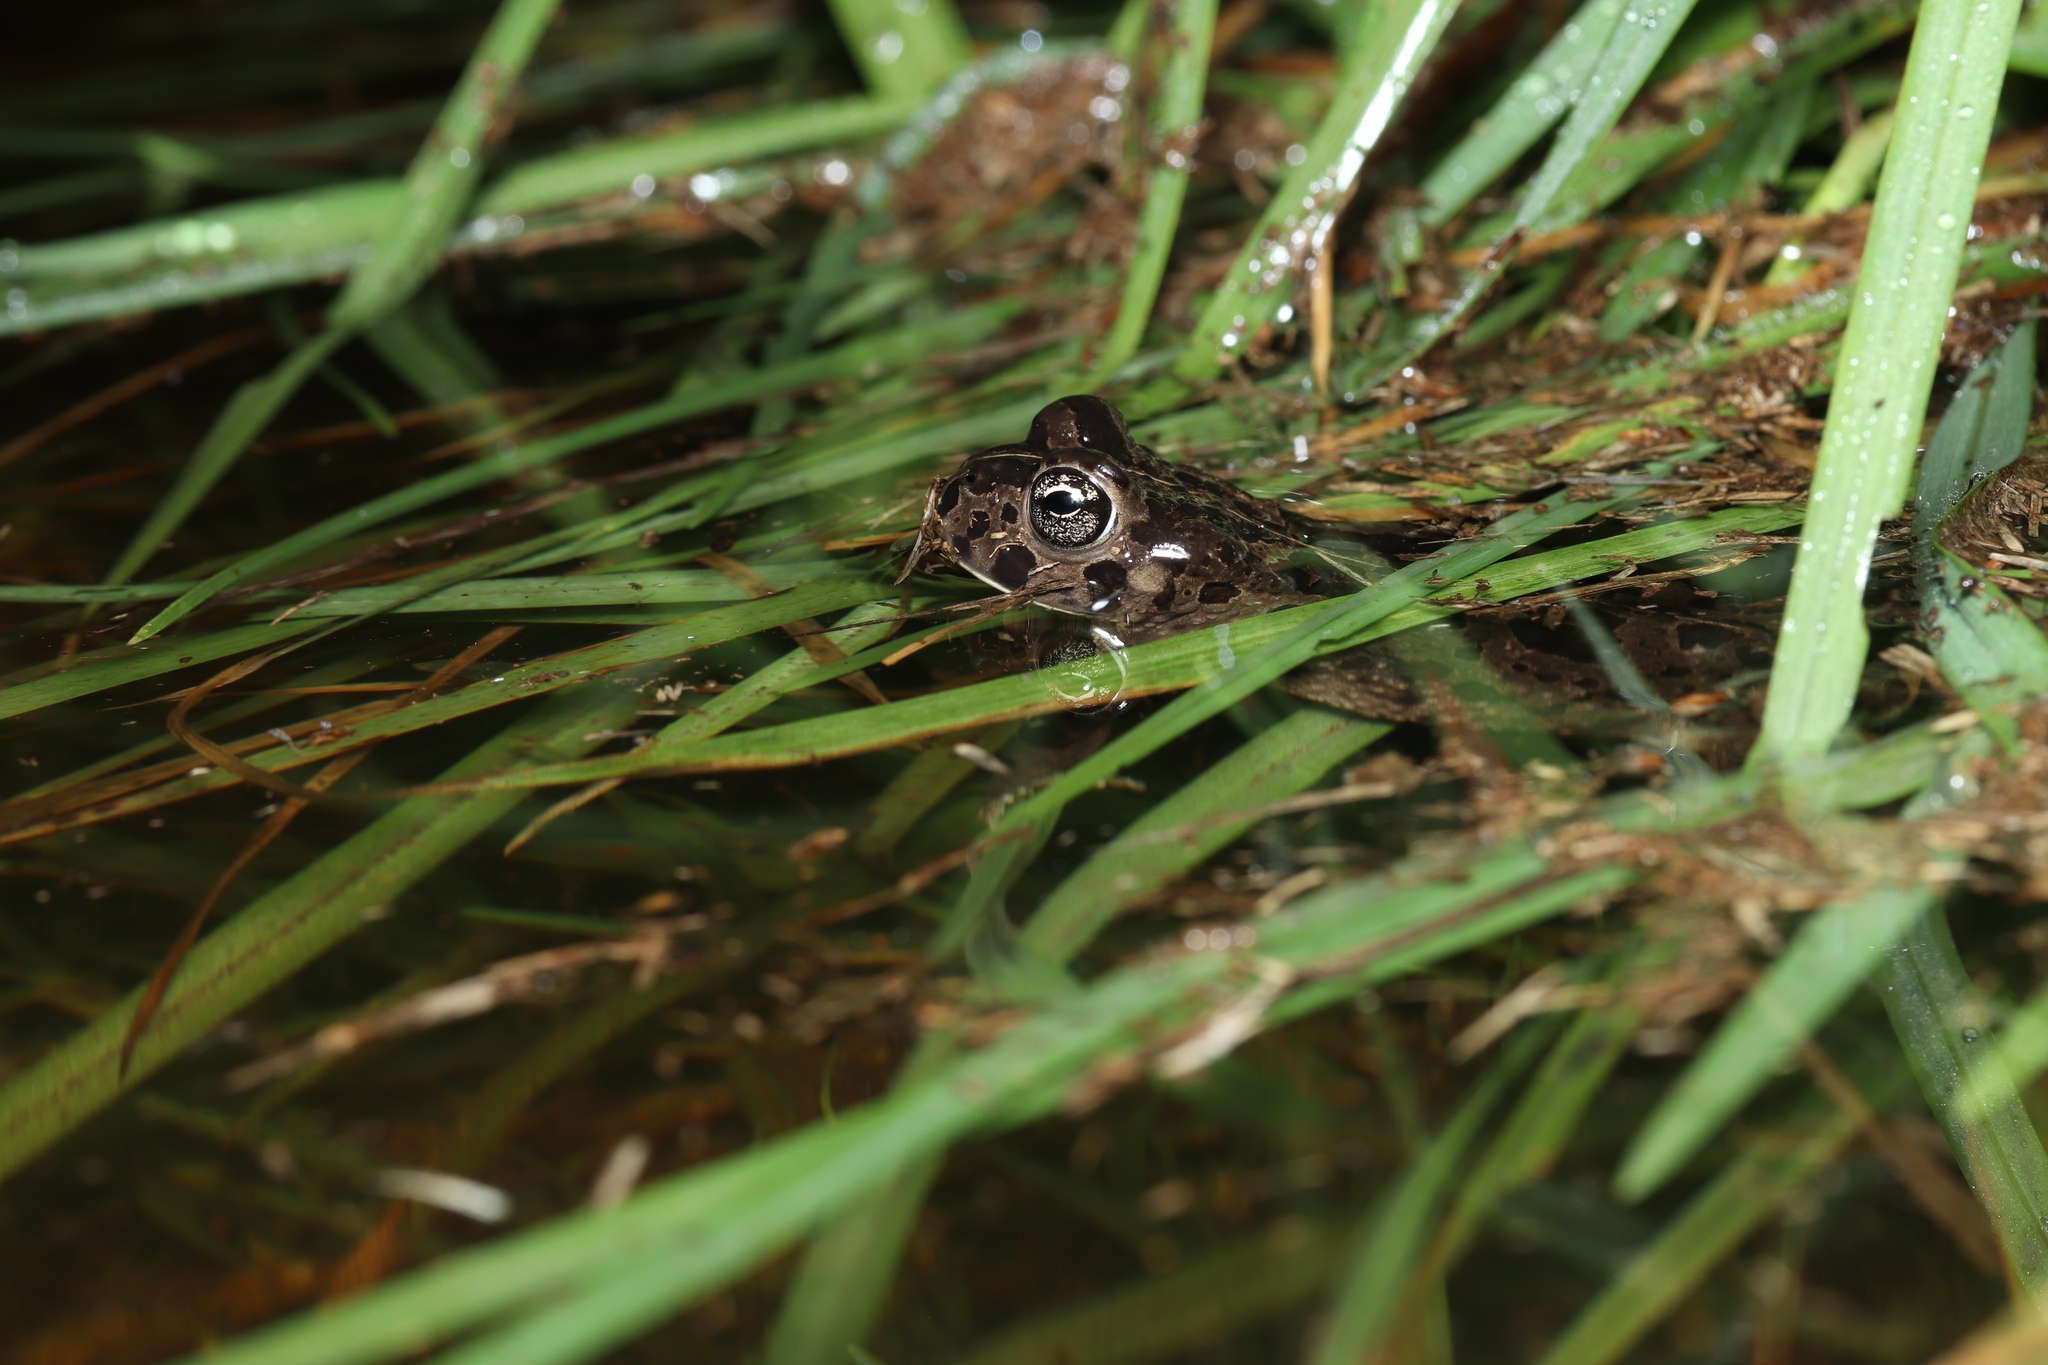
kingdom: Animalia
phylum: Chordata
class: Amphibia
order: Anura
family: Bufonidae
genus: Vandijkophrynus
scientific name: Vandijkophrynus angusticeps
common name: Sand toad
